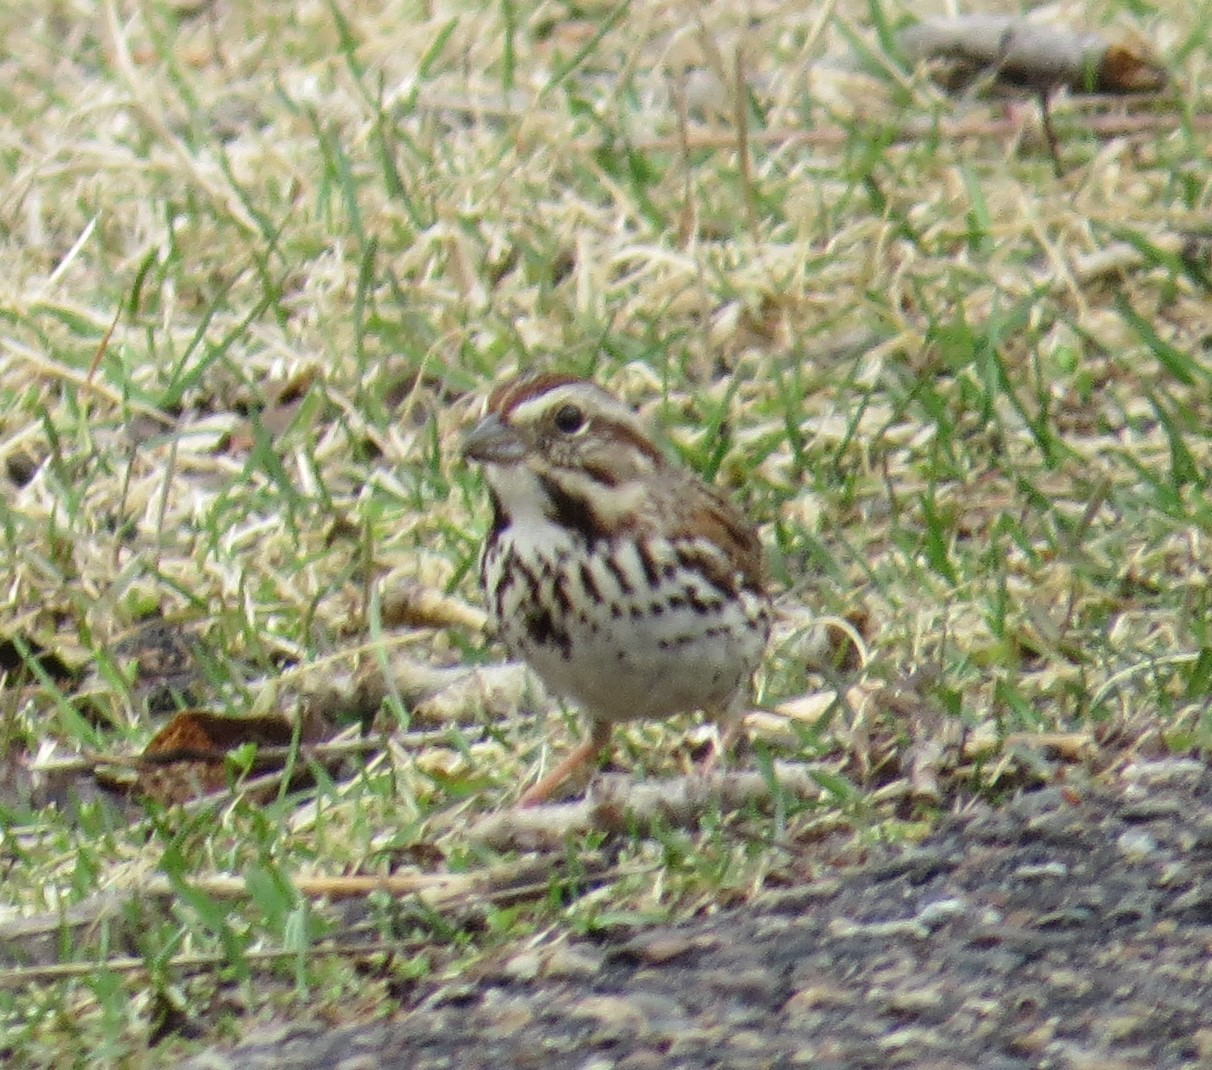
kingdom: Animalia
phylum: Chordata
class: Aves
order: Passeriformes
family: Passerellidae
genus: Melospiza
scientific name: Melospiza melodia
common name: Song sparrow
